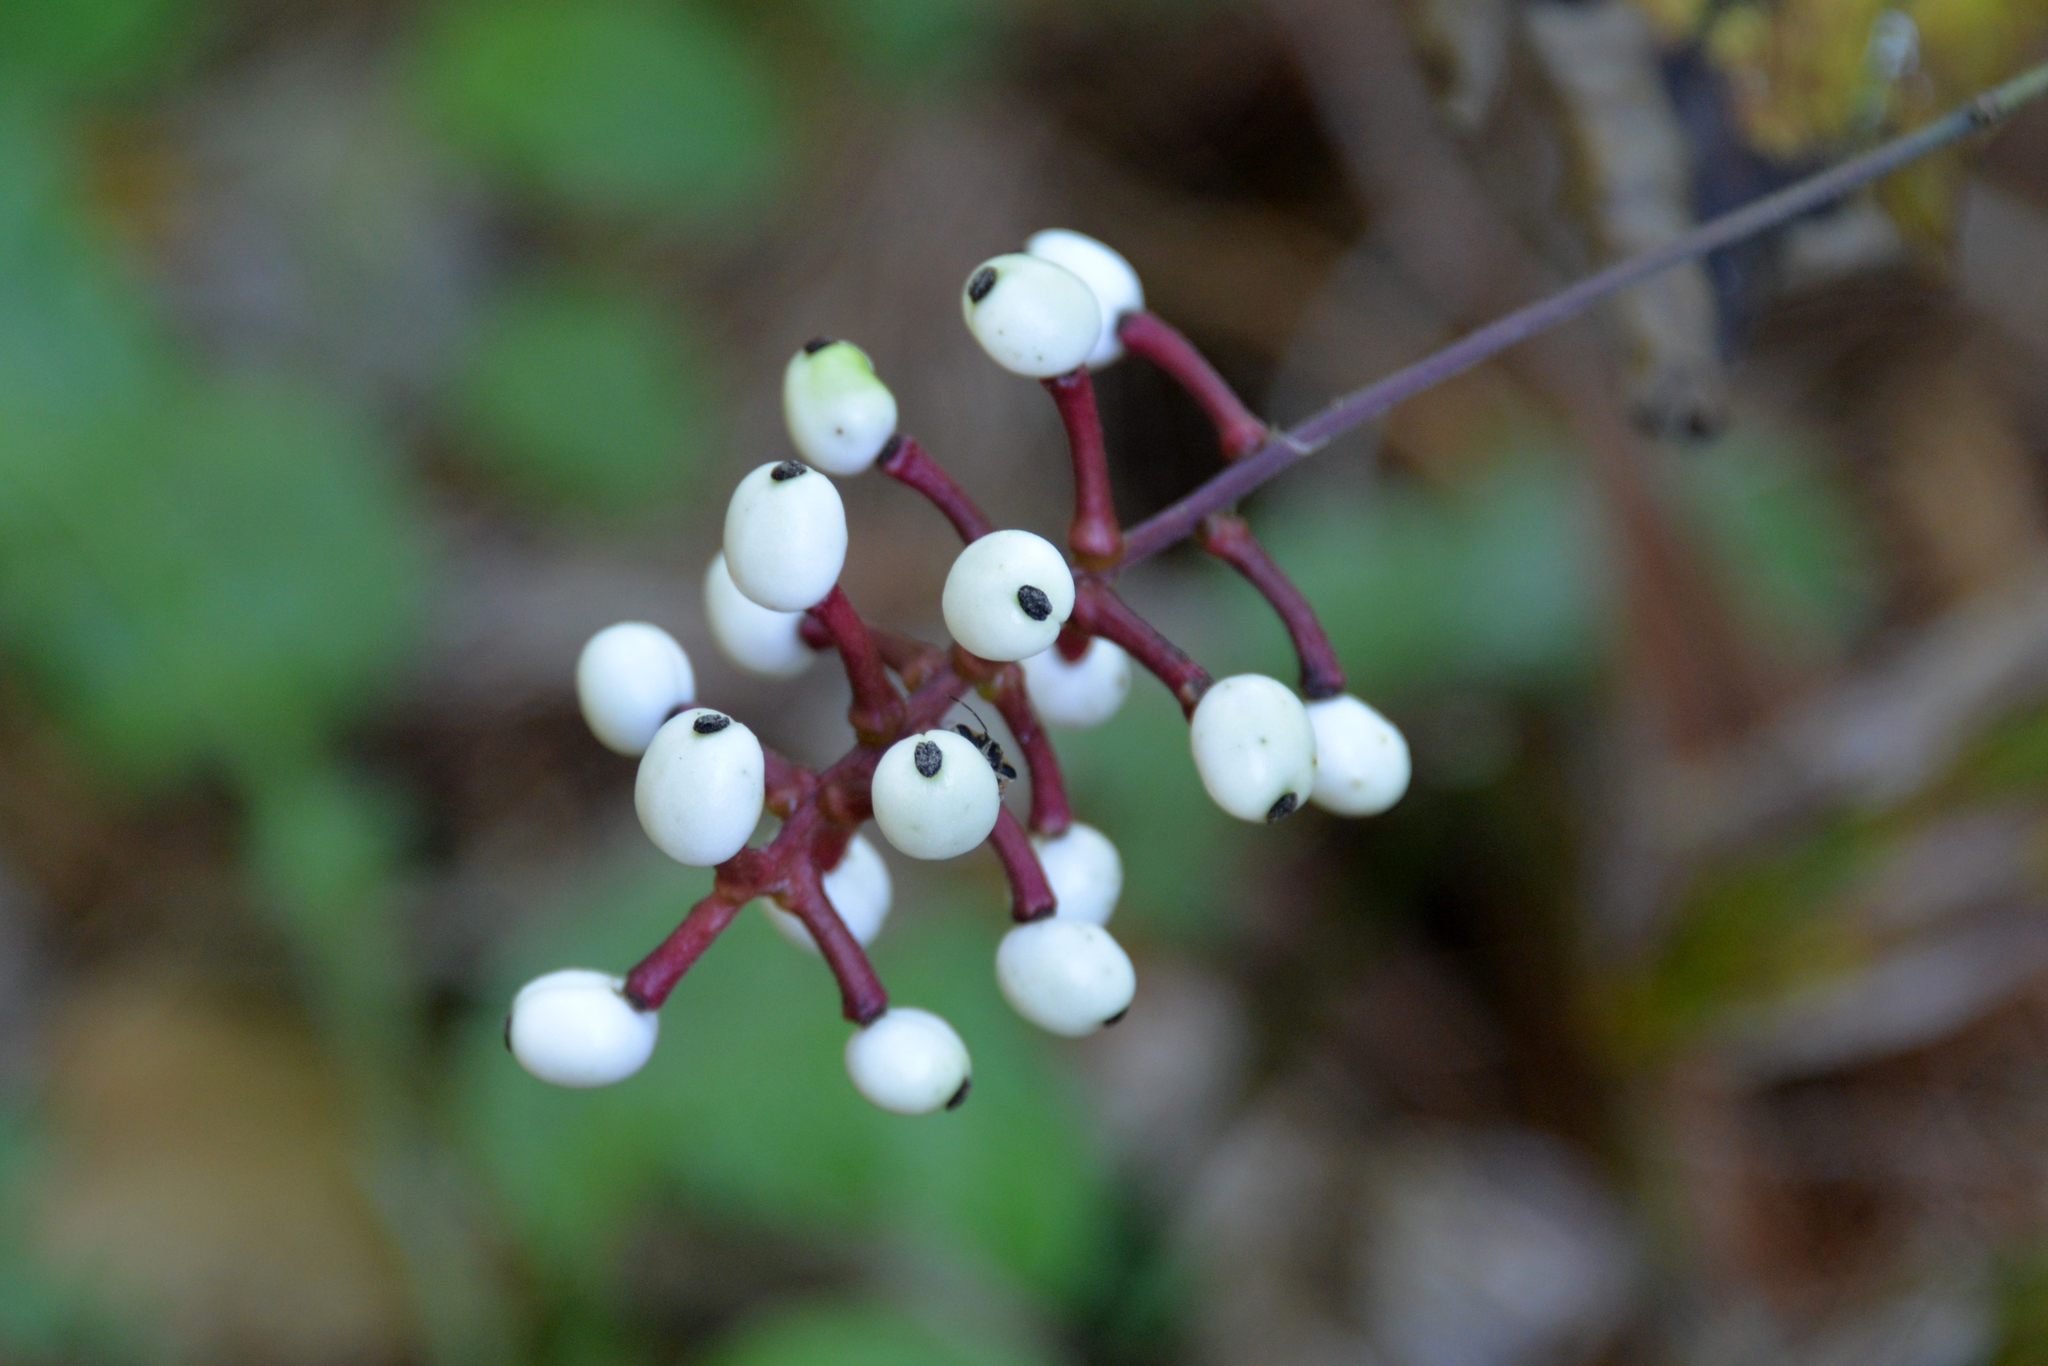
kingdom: Plantae
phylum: Tracheophyta
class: Magnoliopsida
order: Ranunculales
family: Ranunculaceae
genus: Actaea
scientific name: Actaea pachypoda
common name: Doll's-eyes
